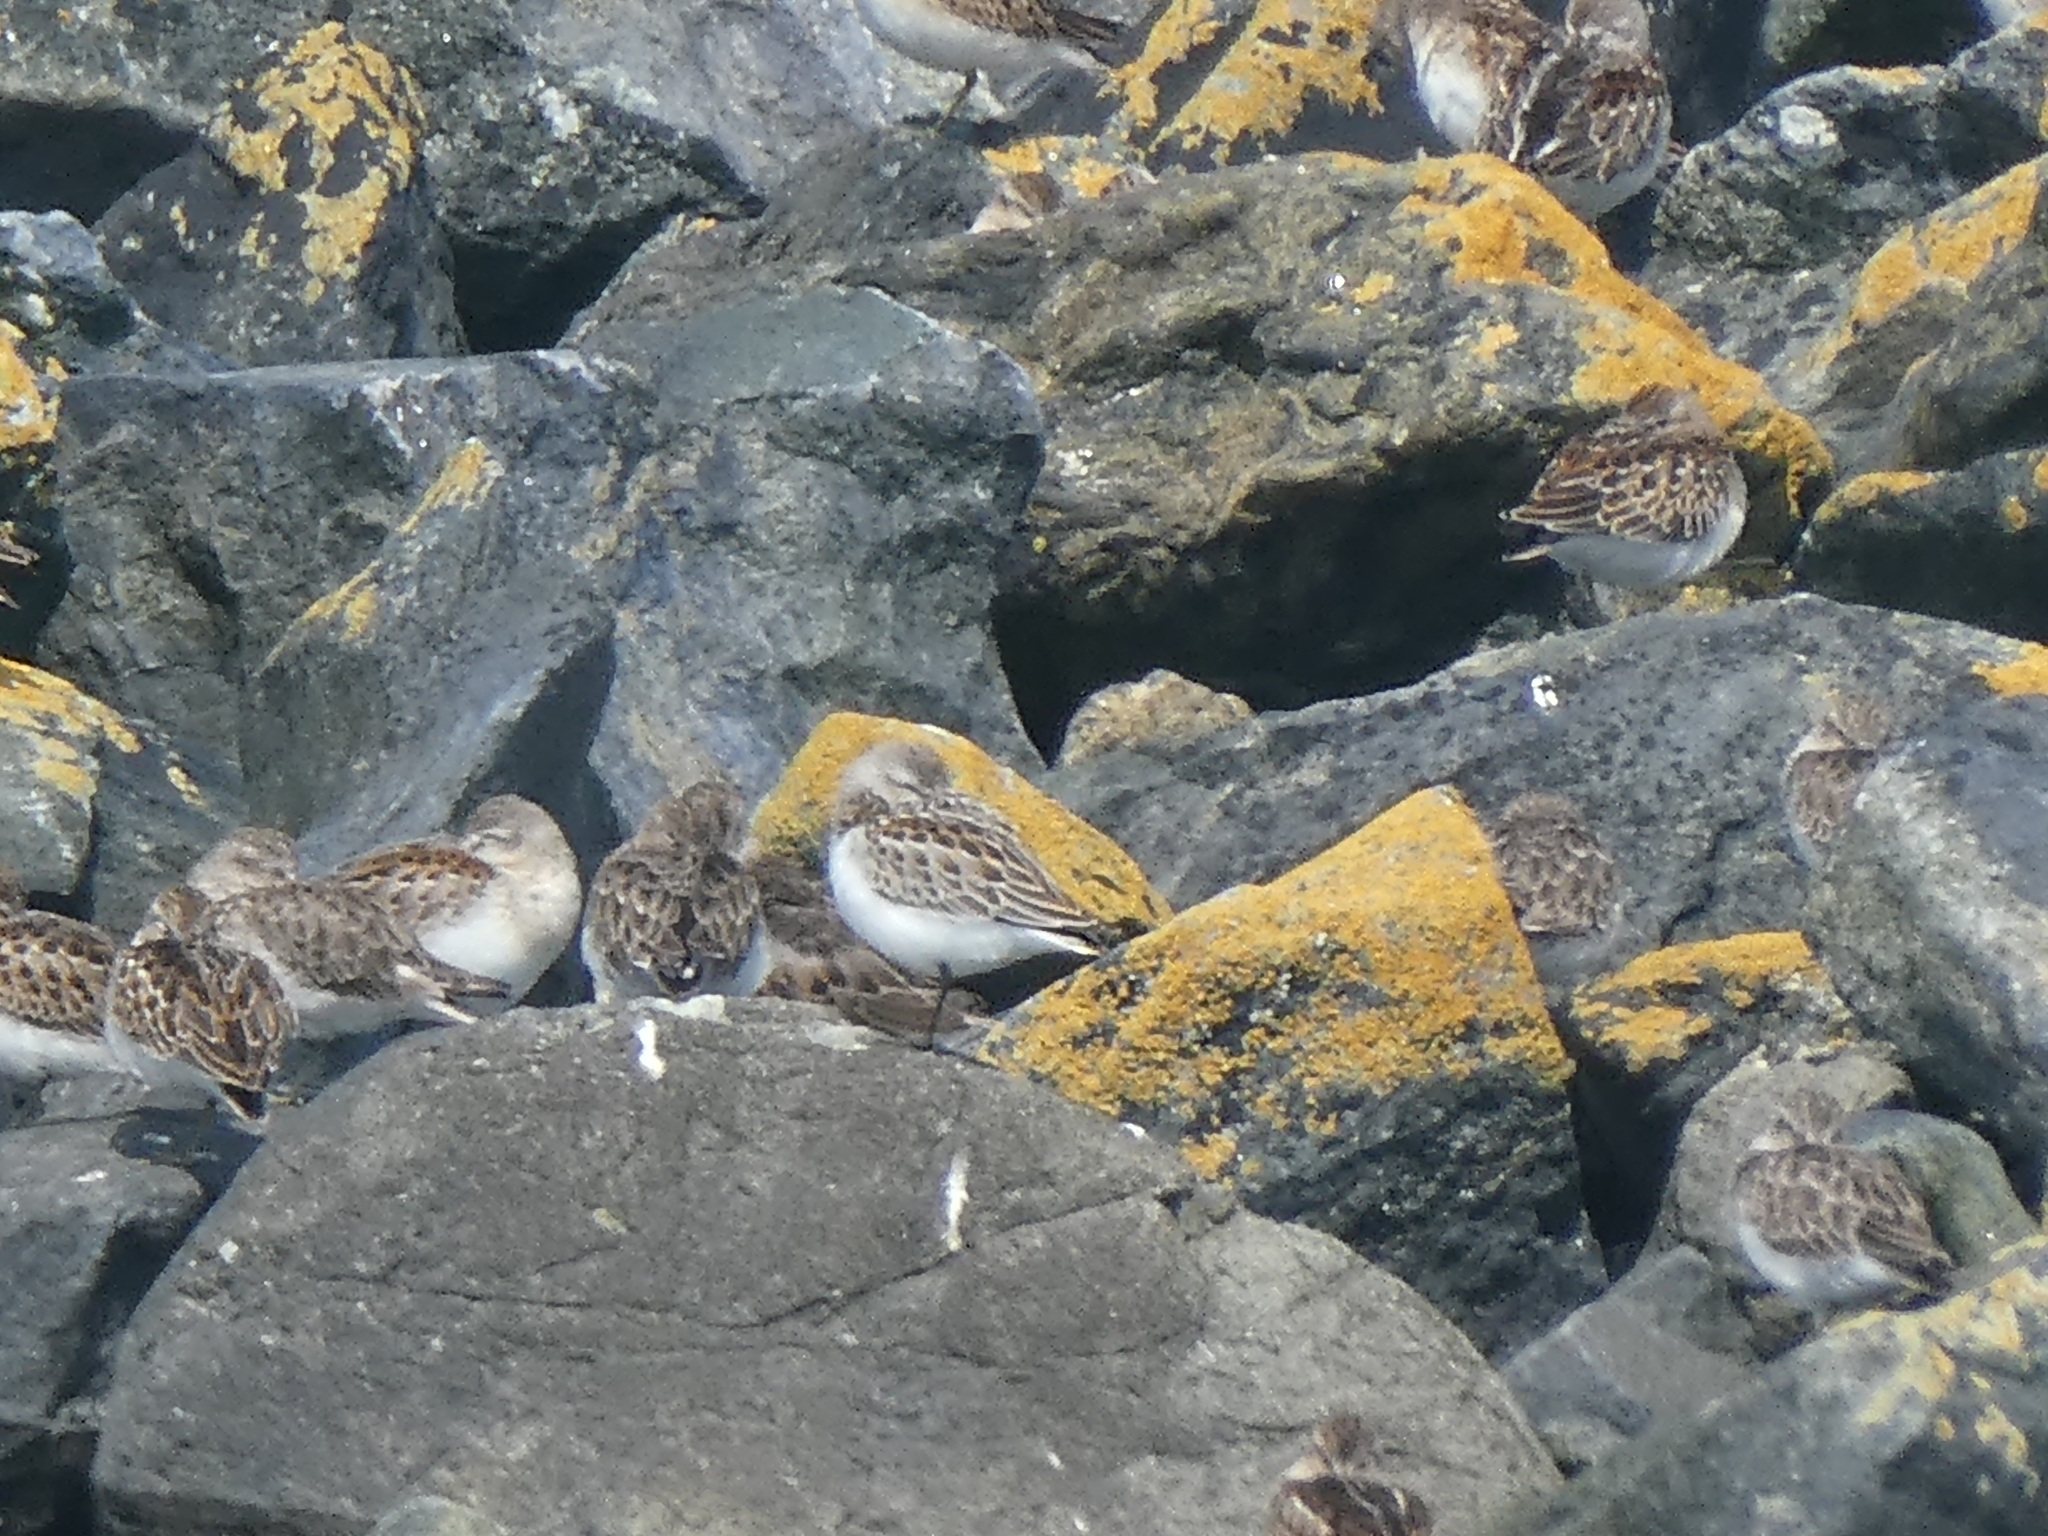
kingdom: Animalia
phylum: Chordata
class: Aves
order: Charadriiformes
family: Scolopacidae
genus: Calidris
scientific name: Calidris mauri
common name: Western sandpiper
